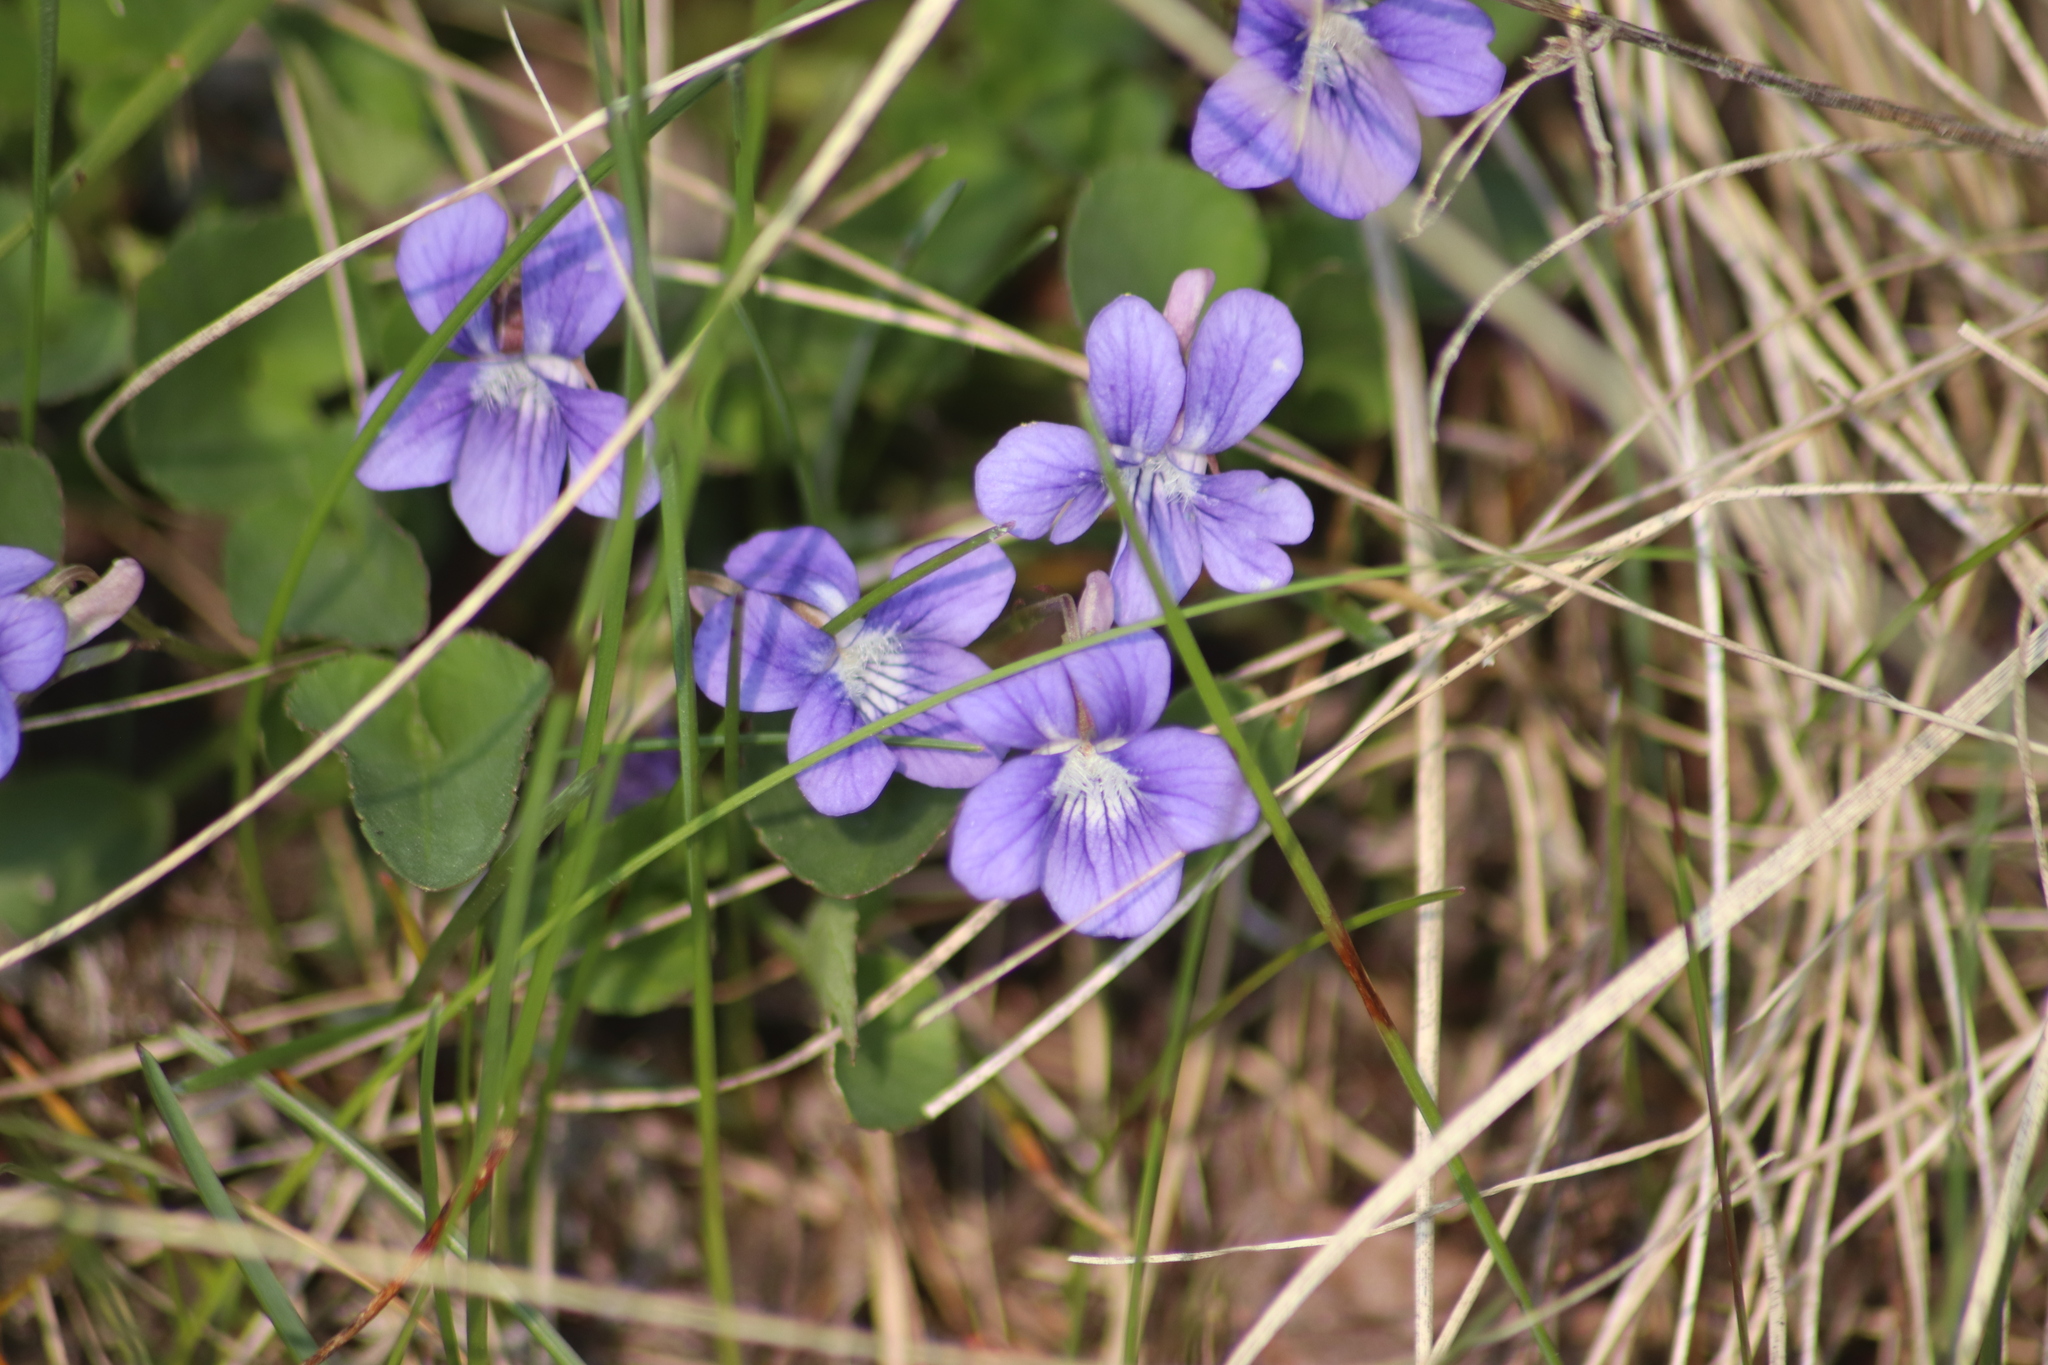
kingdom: Plantae
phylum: Tracheophyta
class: Magnoliopsida
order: Malpighiales
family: Violaceae
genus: Viola
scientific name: Viola adunca
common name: Sand violet
